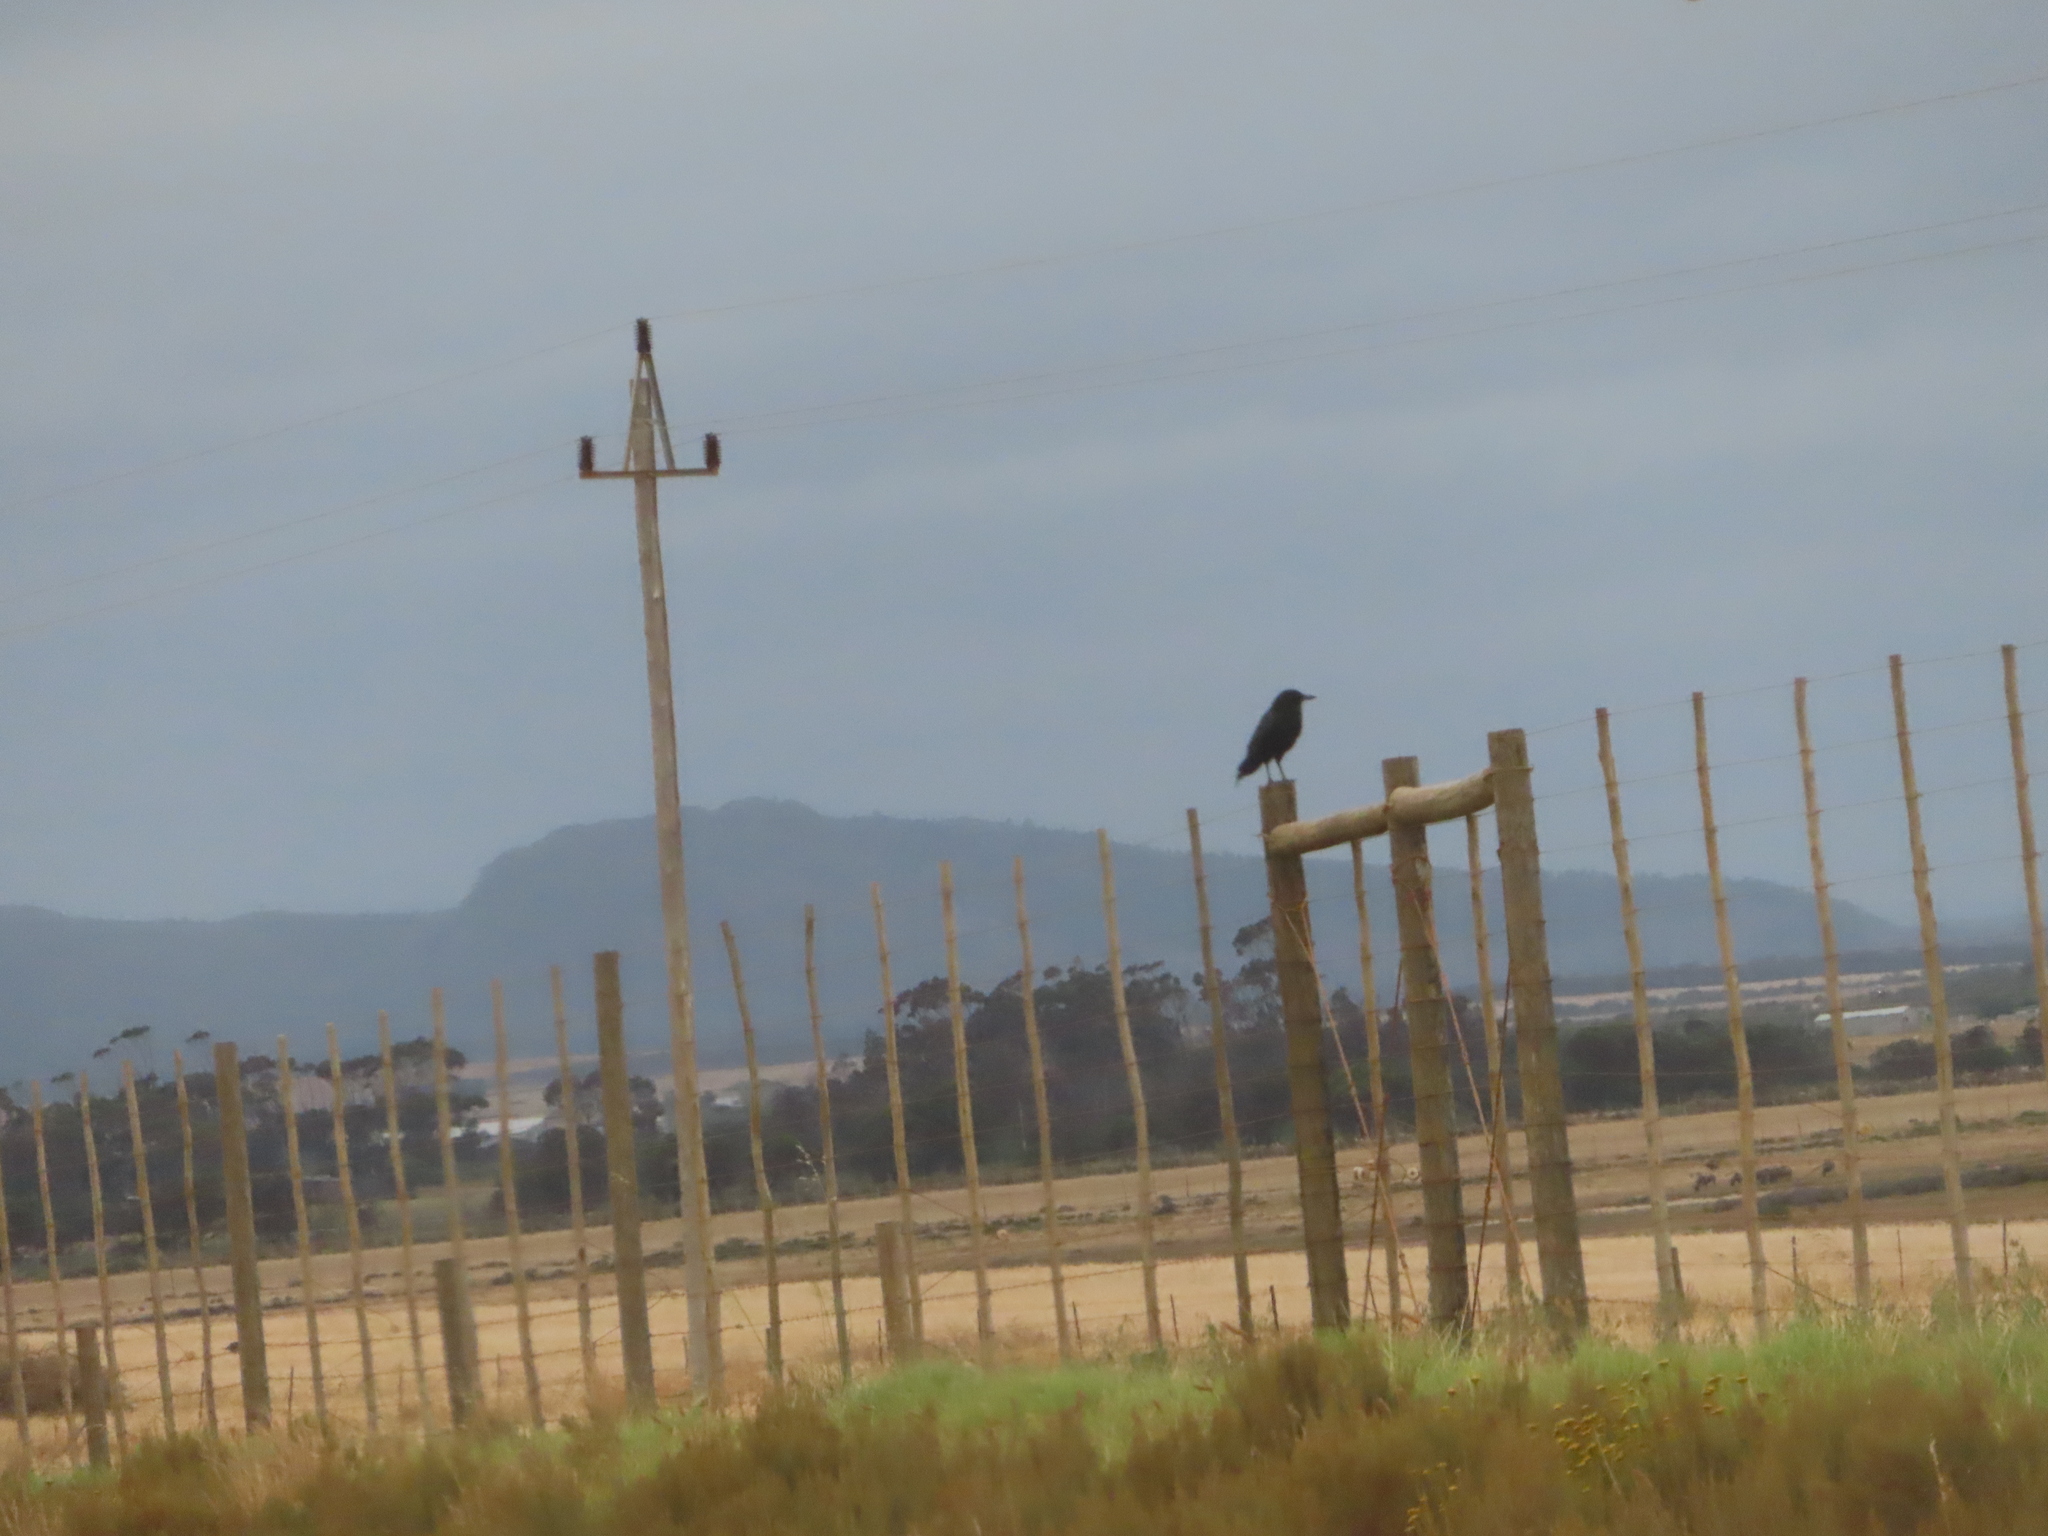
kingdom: Animalia
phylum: Chordata
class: Aves
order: Passeriformes
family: Corvidae
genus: Corvus
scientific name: Corvus capensis
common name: Cape crow
